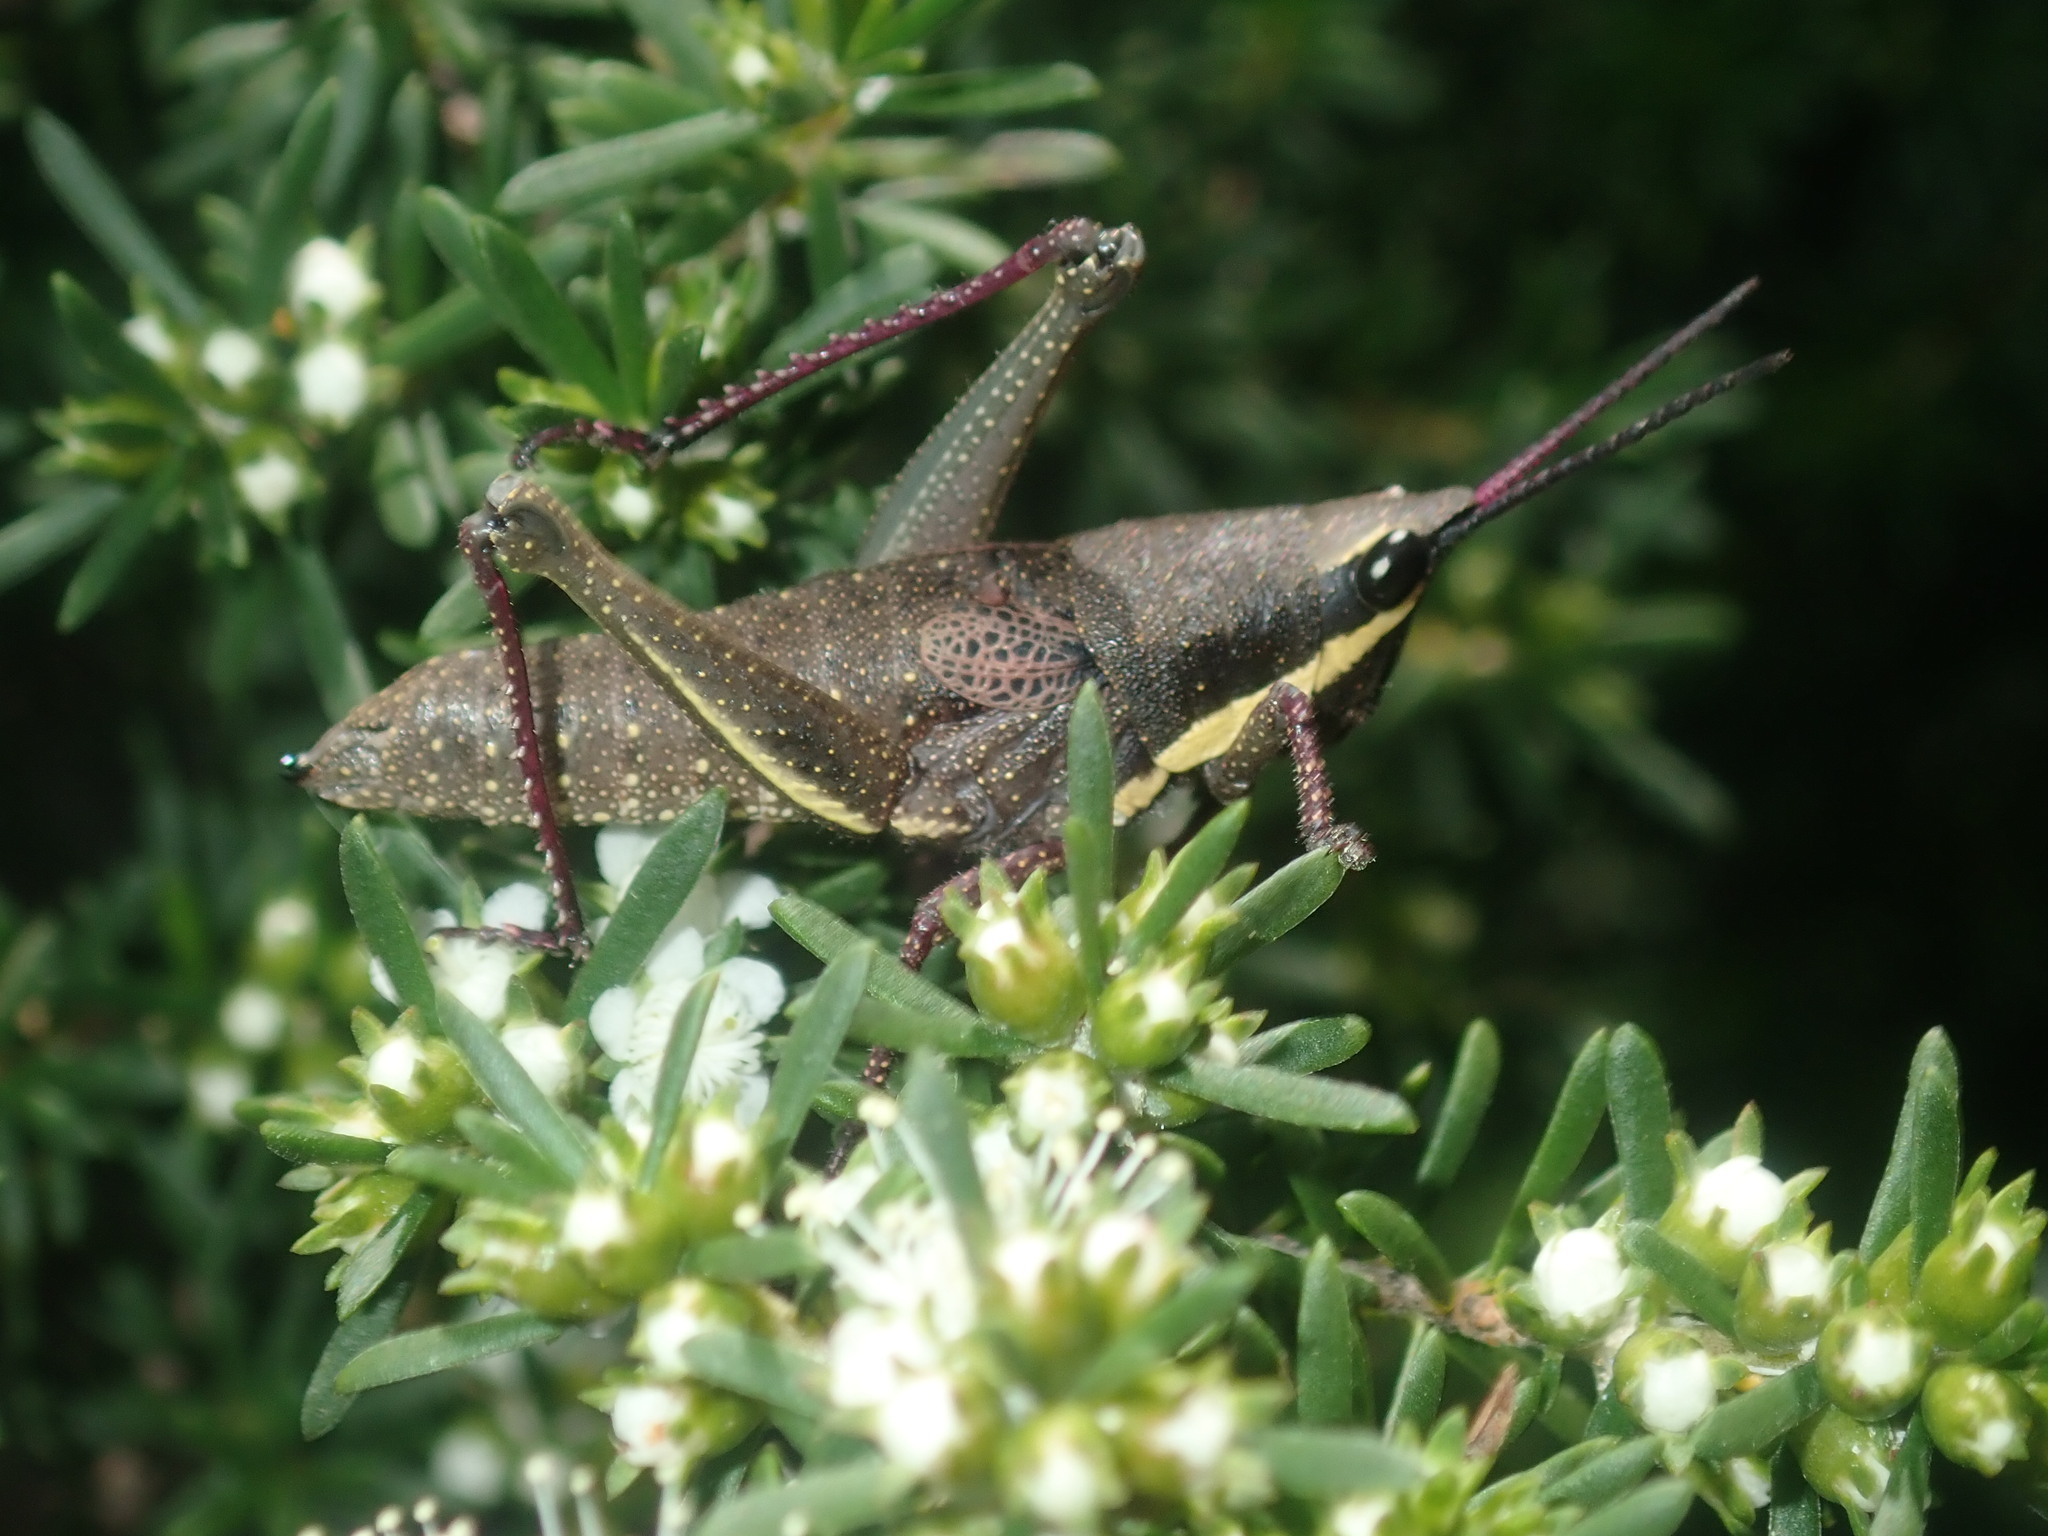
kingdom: Animalia
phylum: Arthropoda
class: Insecta
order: Orthoptera
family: Pyrgomorphidae
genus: Monistria
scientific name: Monistria discrepans
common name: Common pyrgomorph
